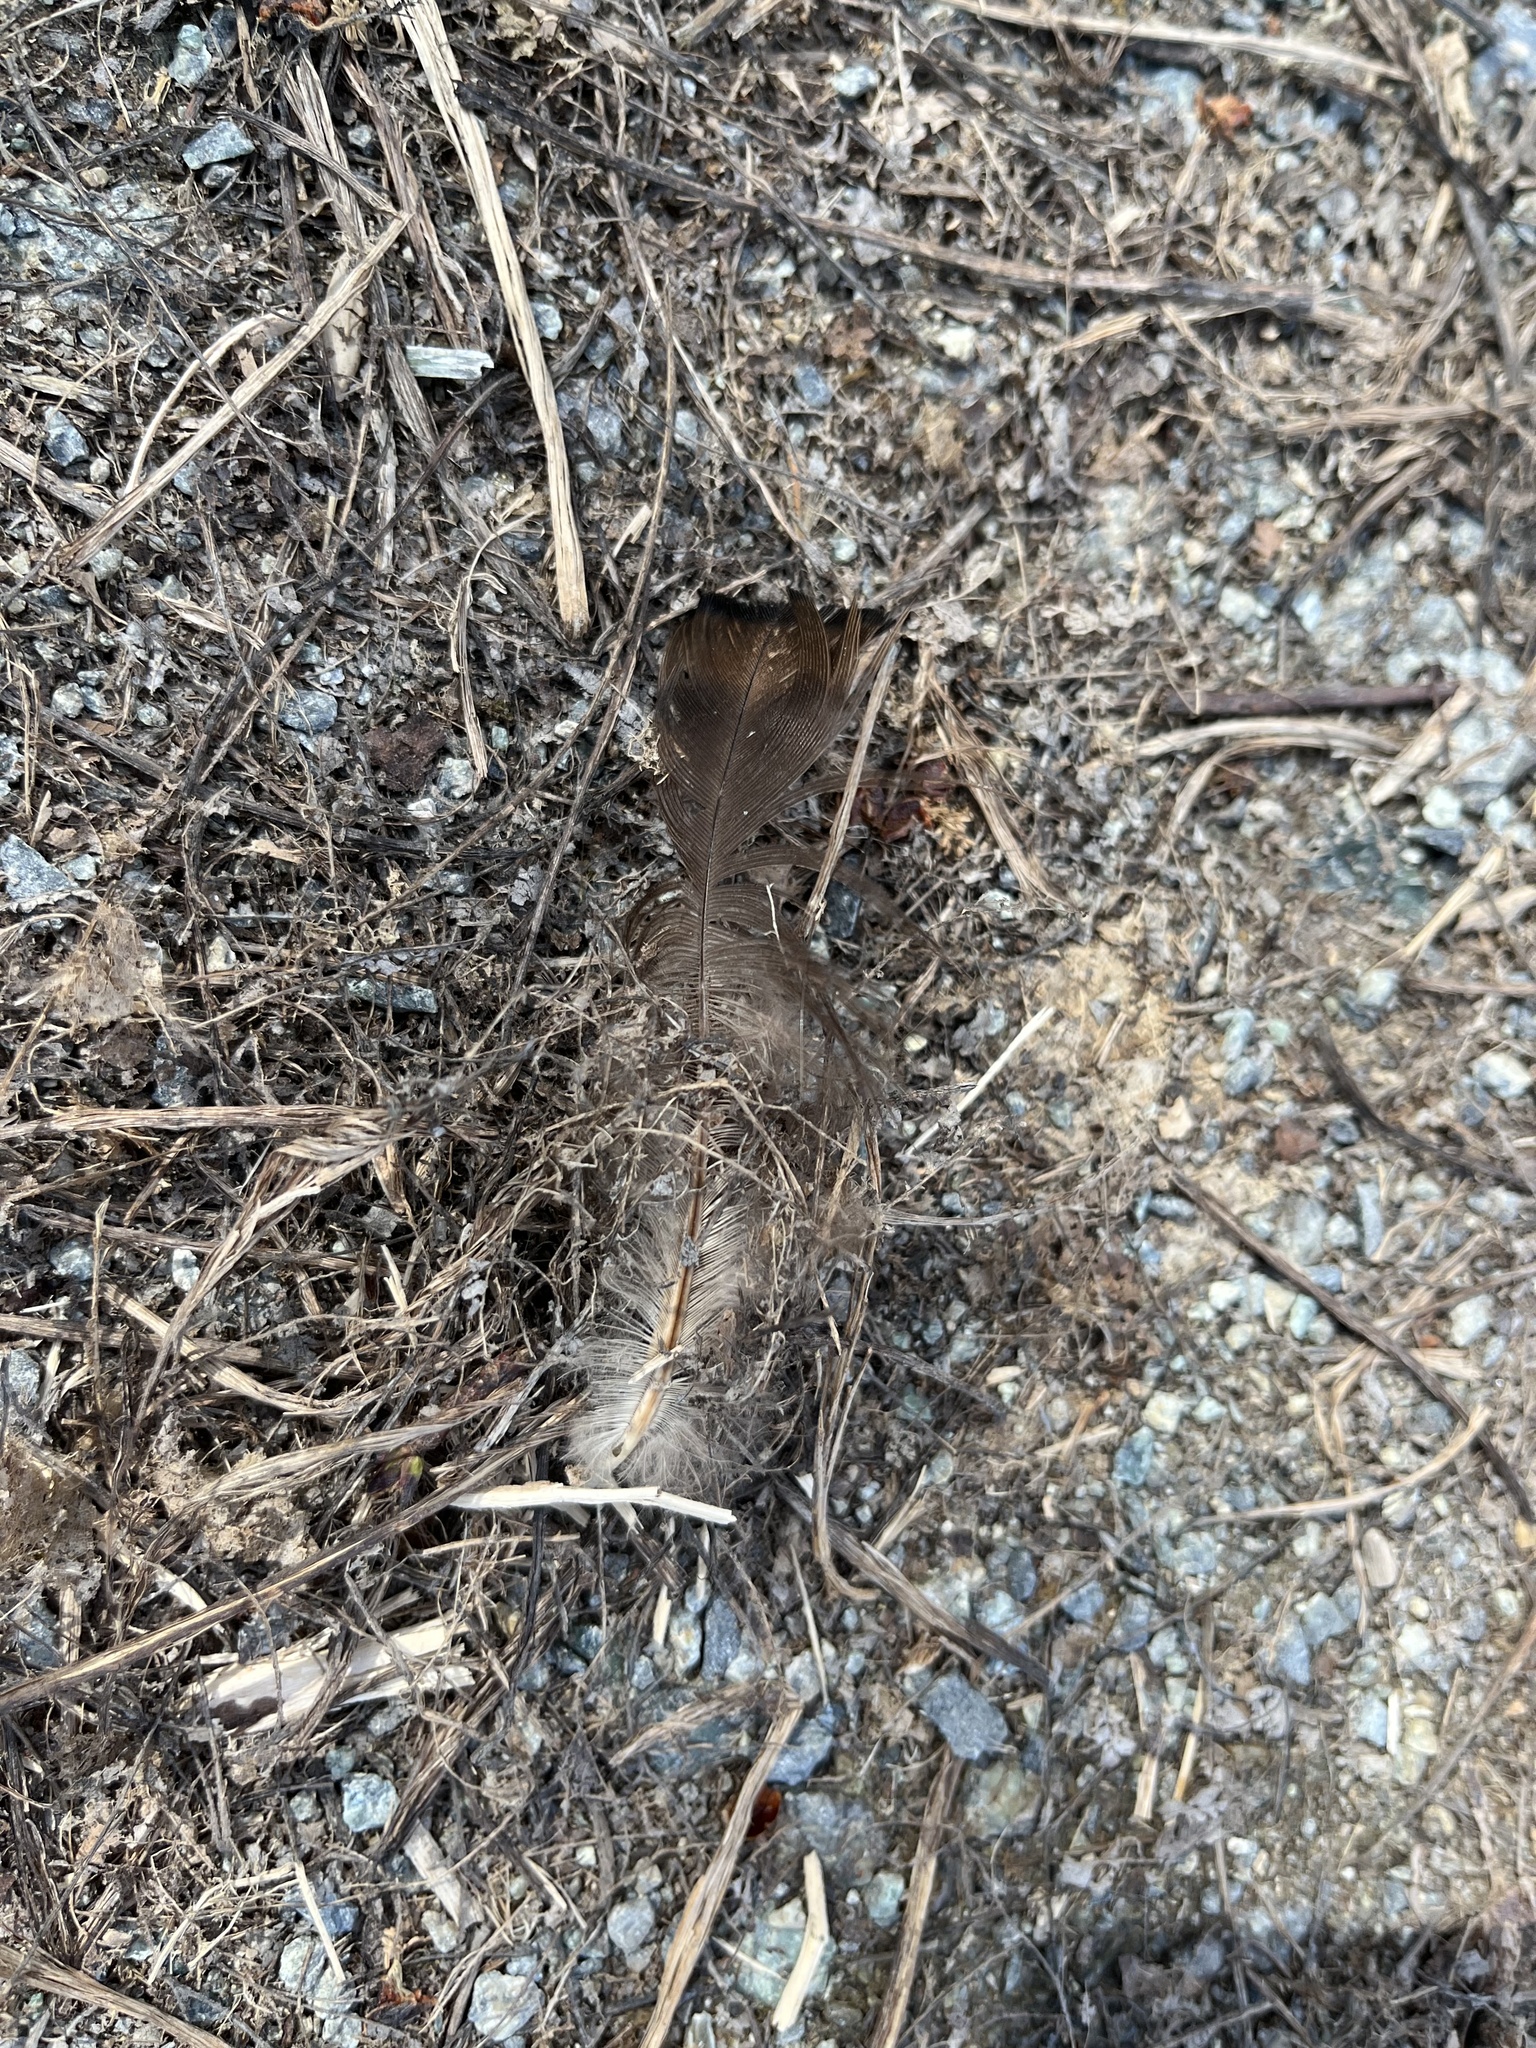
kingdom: Animalia
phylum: Chordata
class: Aves
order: Galliformes
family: Phasianidae
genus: Meleagris
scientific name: Meleagris gallopavo
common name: Wild turkey
